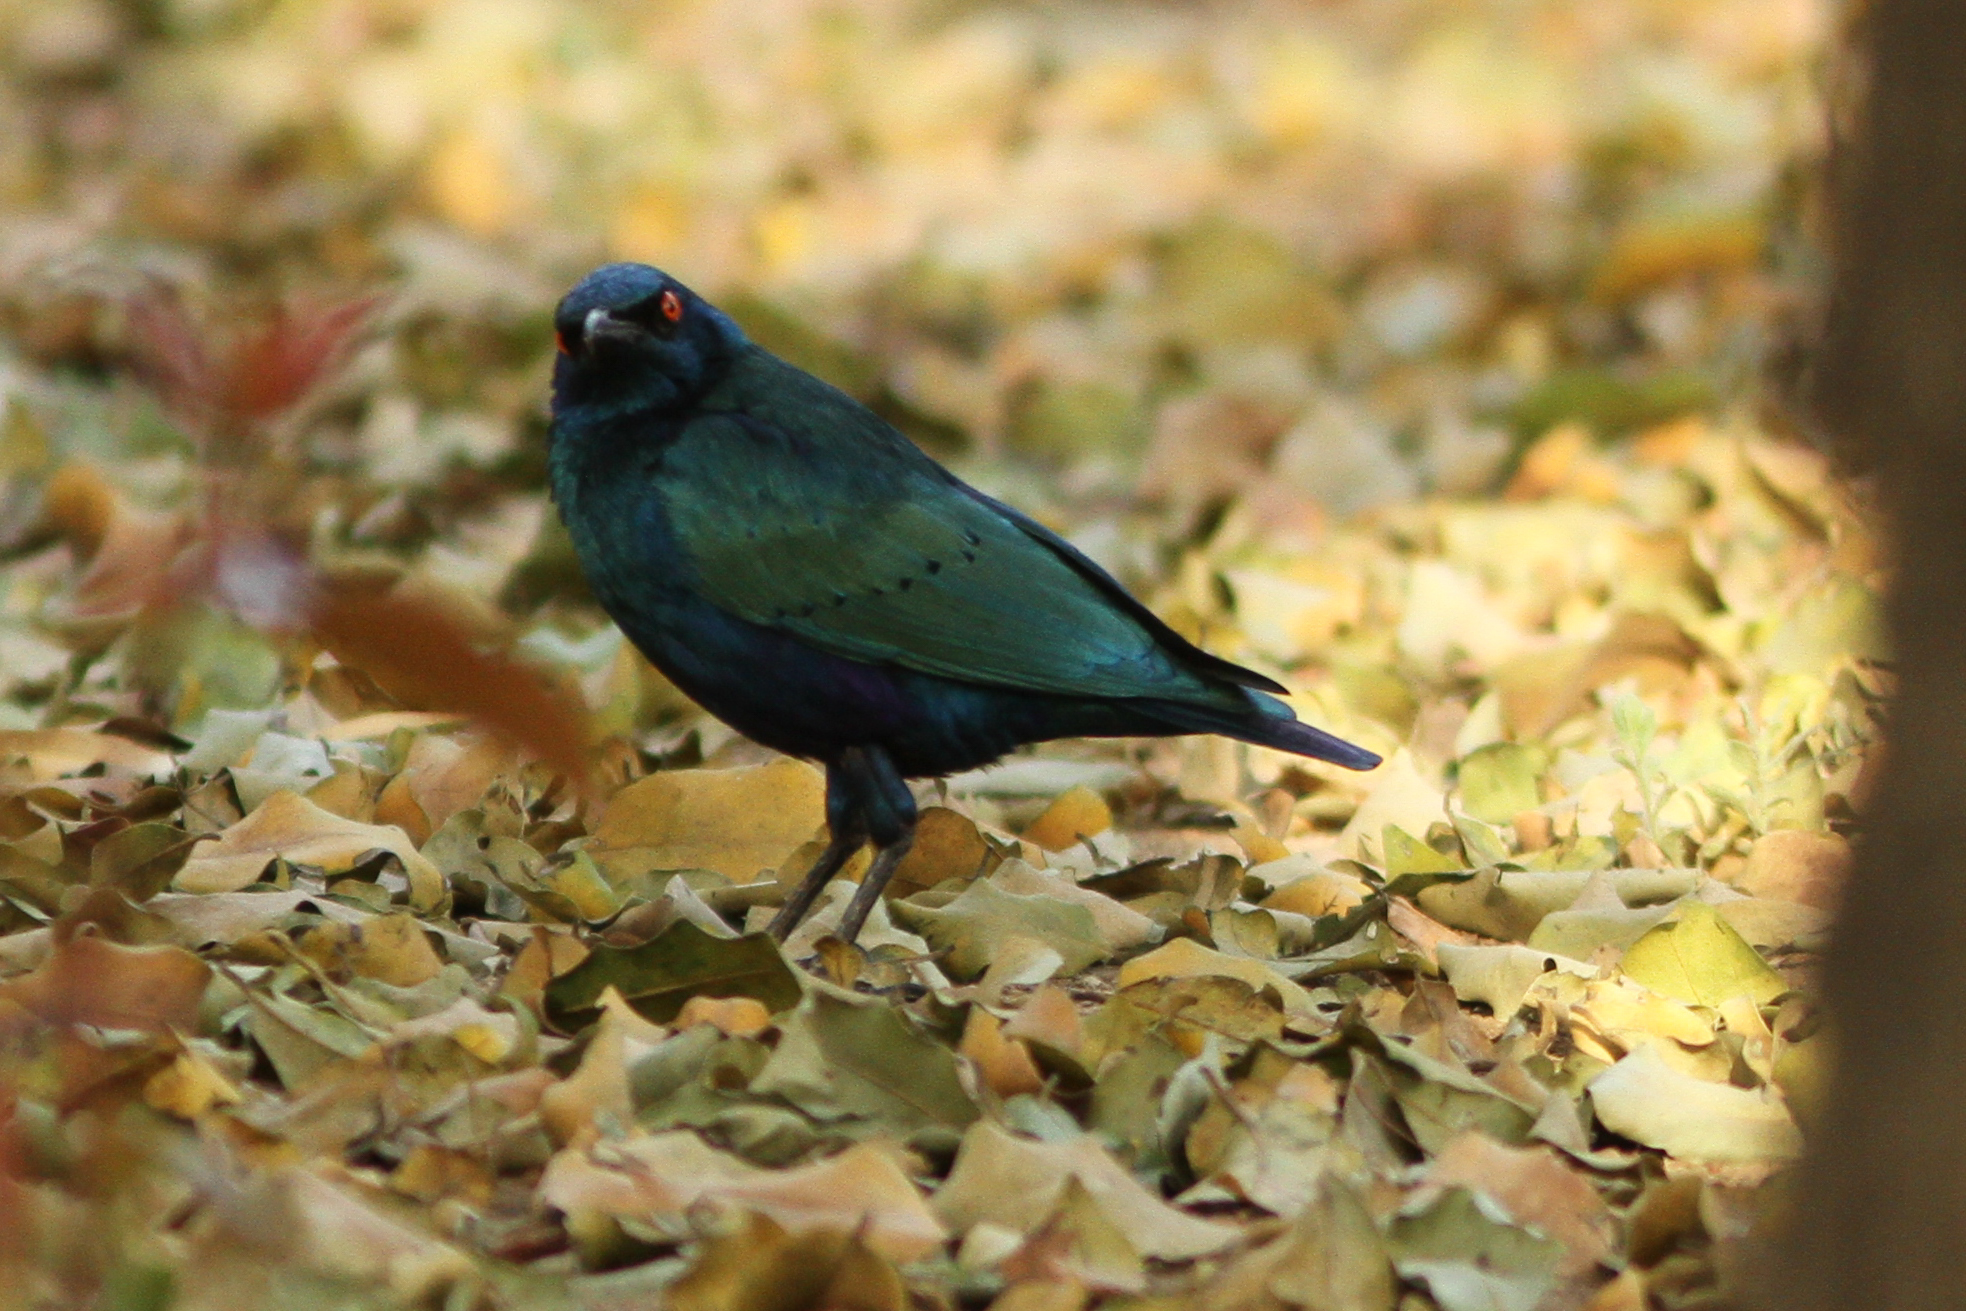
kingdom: Animalia
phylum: Chordata
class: Aves
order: Passeriformes
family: Sturnidae
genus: Lamprotornis
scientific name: Lamprotornis chalcurus
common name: Bronze-tailed starling
